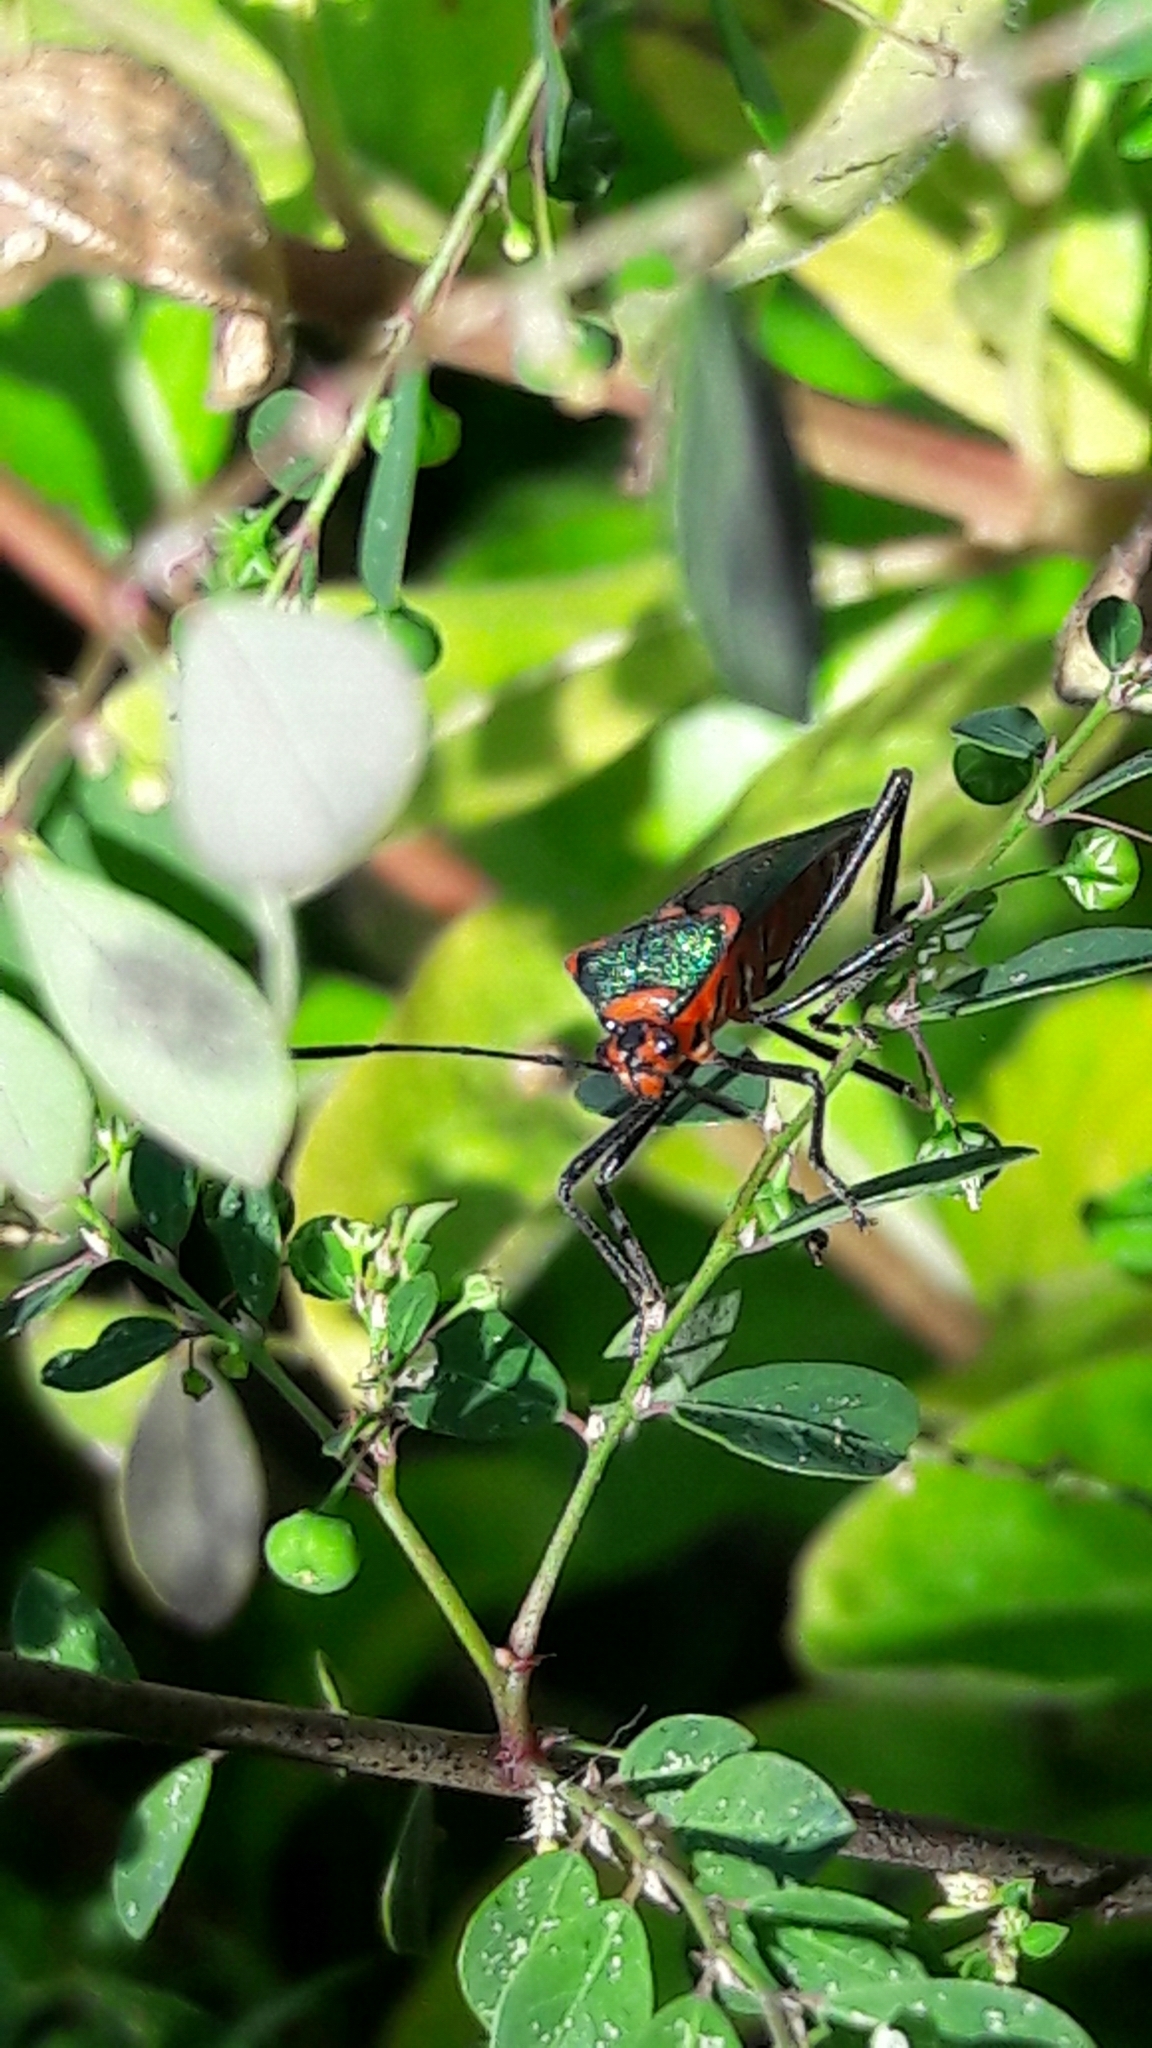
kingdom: Animalia
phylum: Arthropoda
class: Insecta
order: Hemiptera
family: Coreidae
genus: Sphictyrtus
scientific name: Sphictyrtus chrysis
